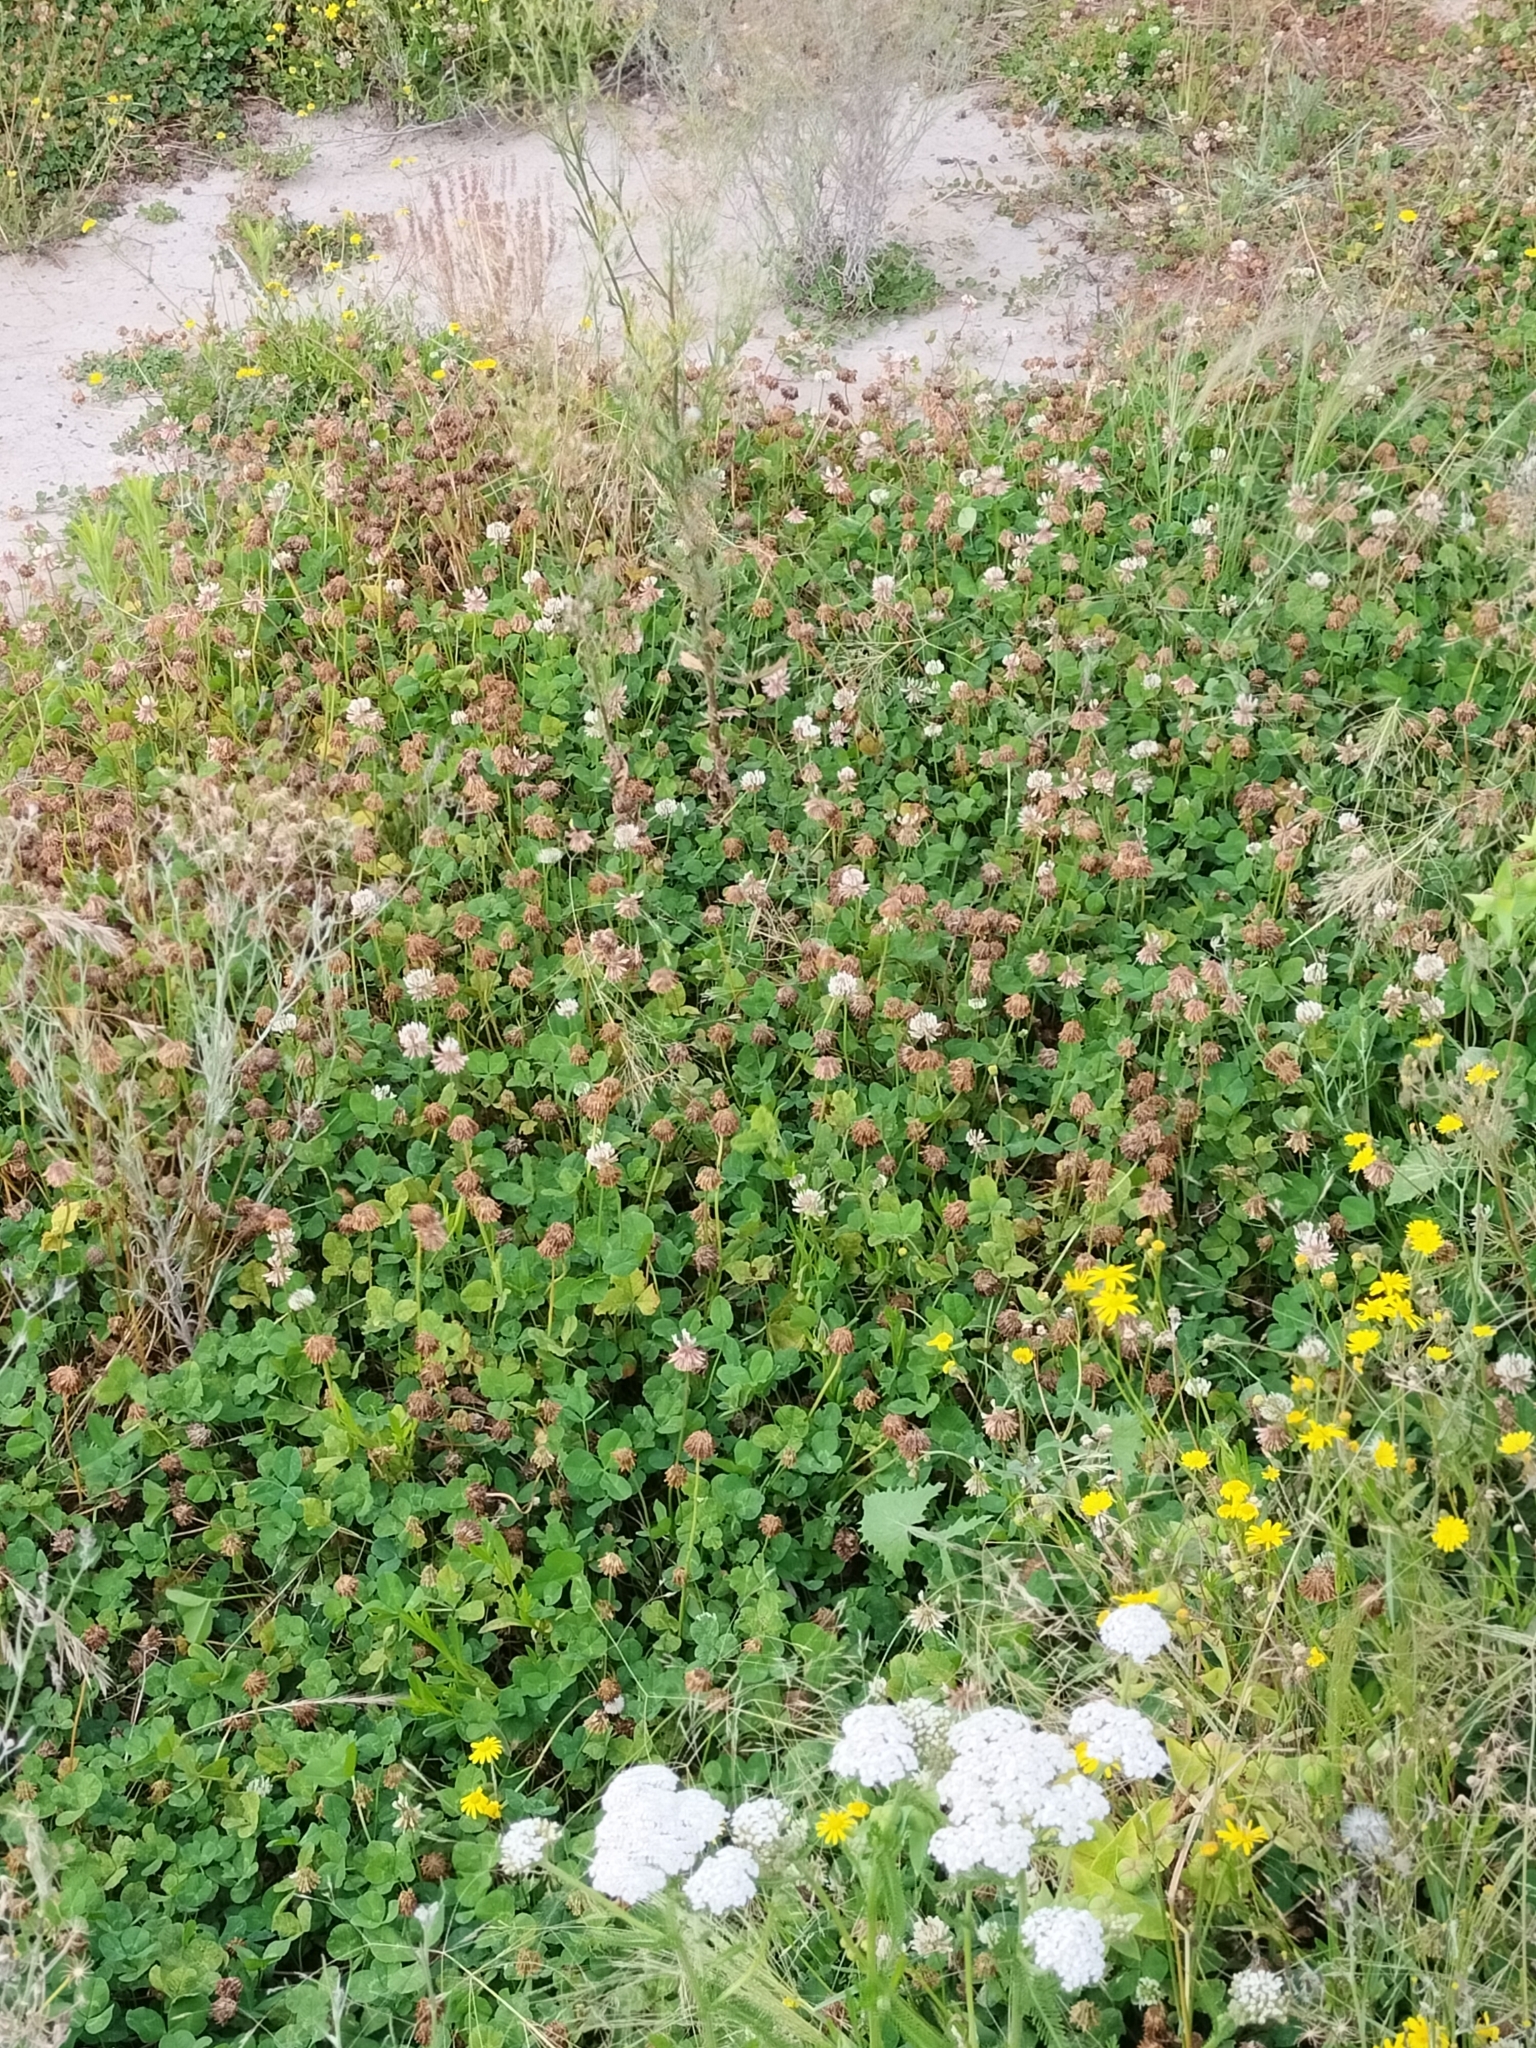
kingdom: Plantae
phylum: Tracheophyta
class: Magnoliopsida
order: Fabales
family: Fabaceae
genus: Trifolium
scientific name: Trifolium repens
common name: White clover
